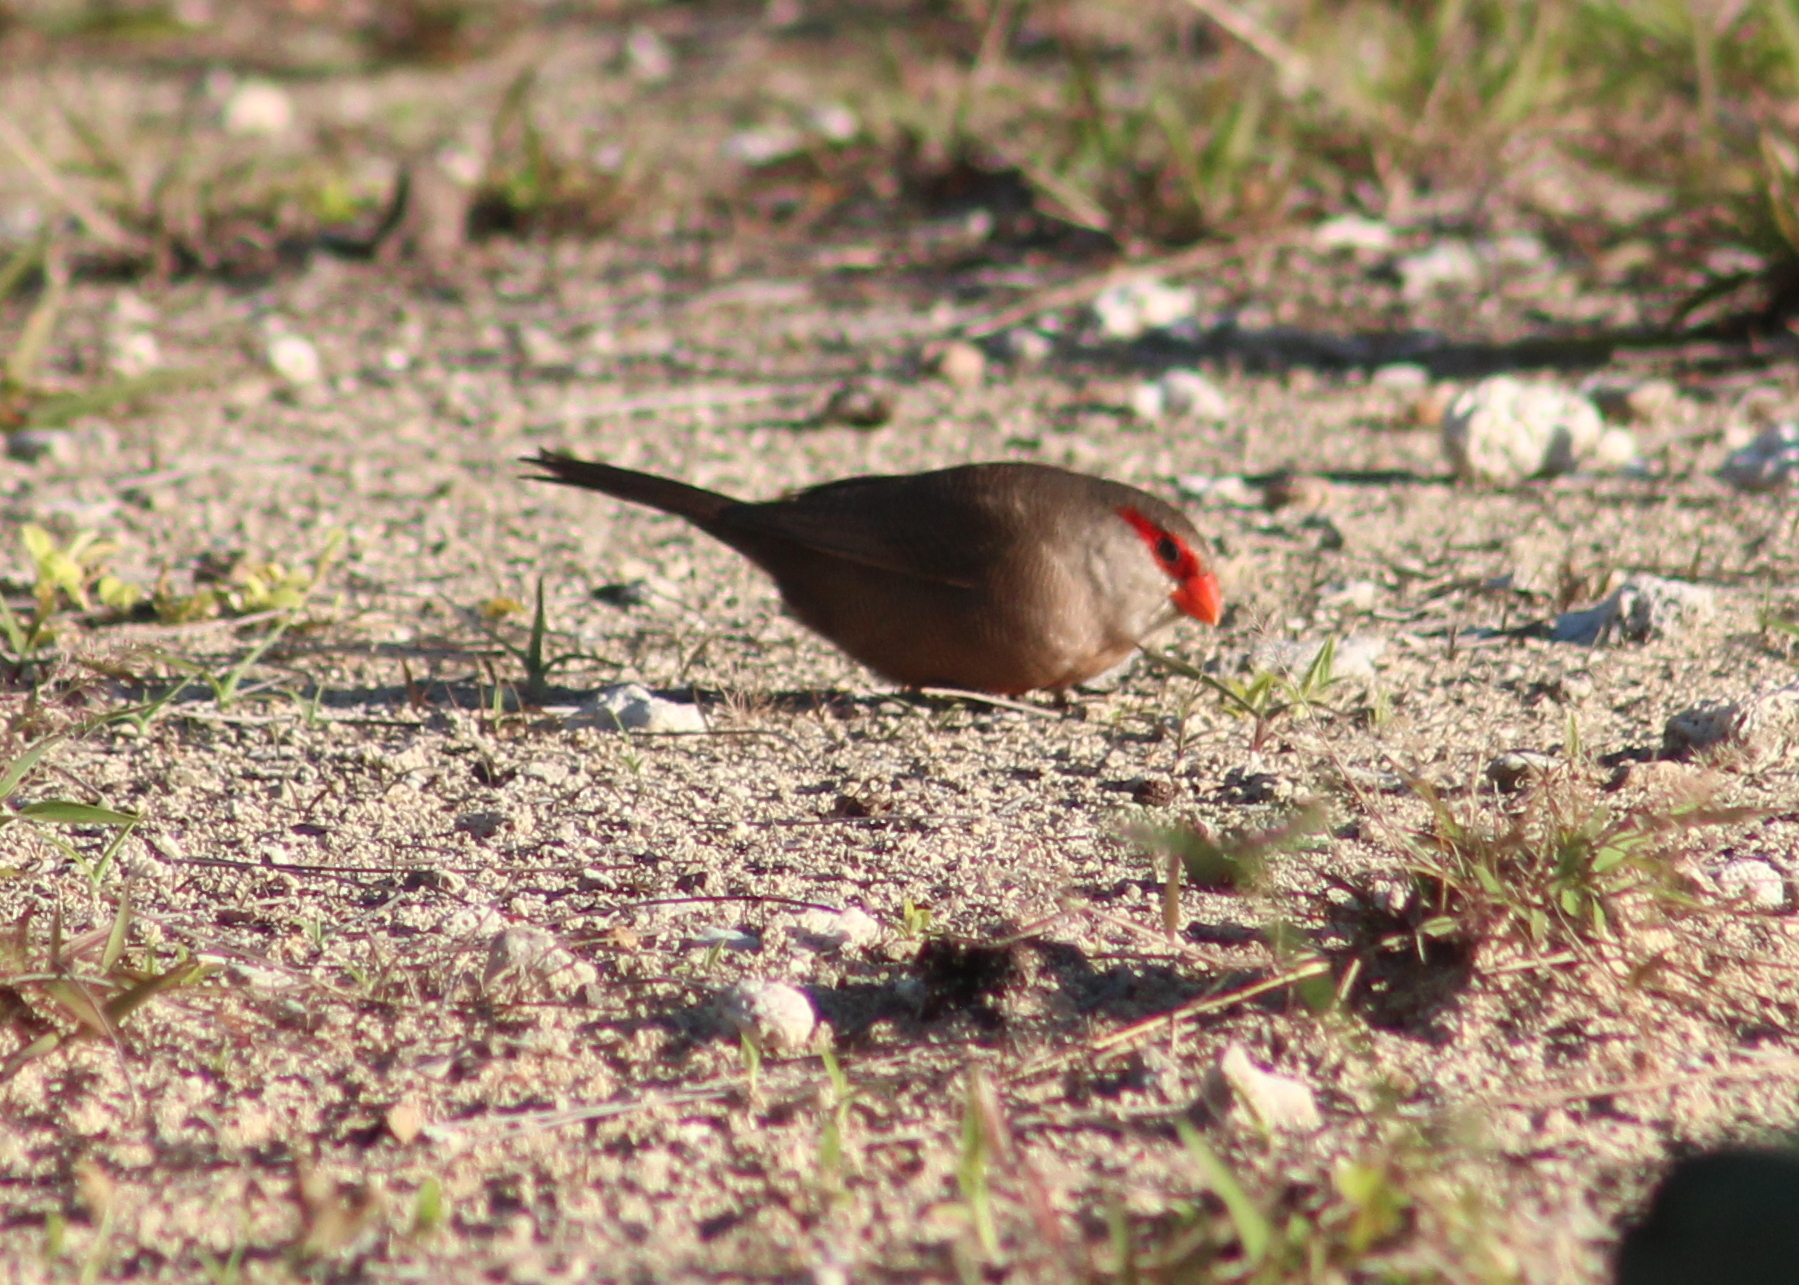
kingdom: Animalia
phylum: Chordata
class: Aves
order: Passeriformes
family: Estrildidae
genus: Estrilda
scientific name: Estrilda astrild
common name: Common waxbill
